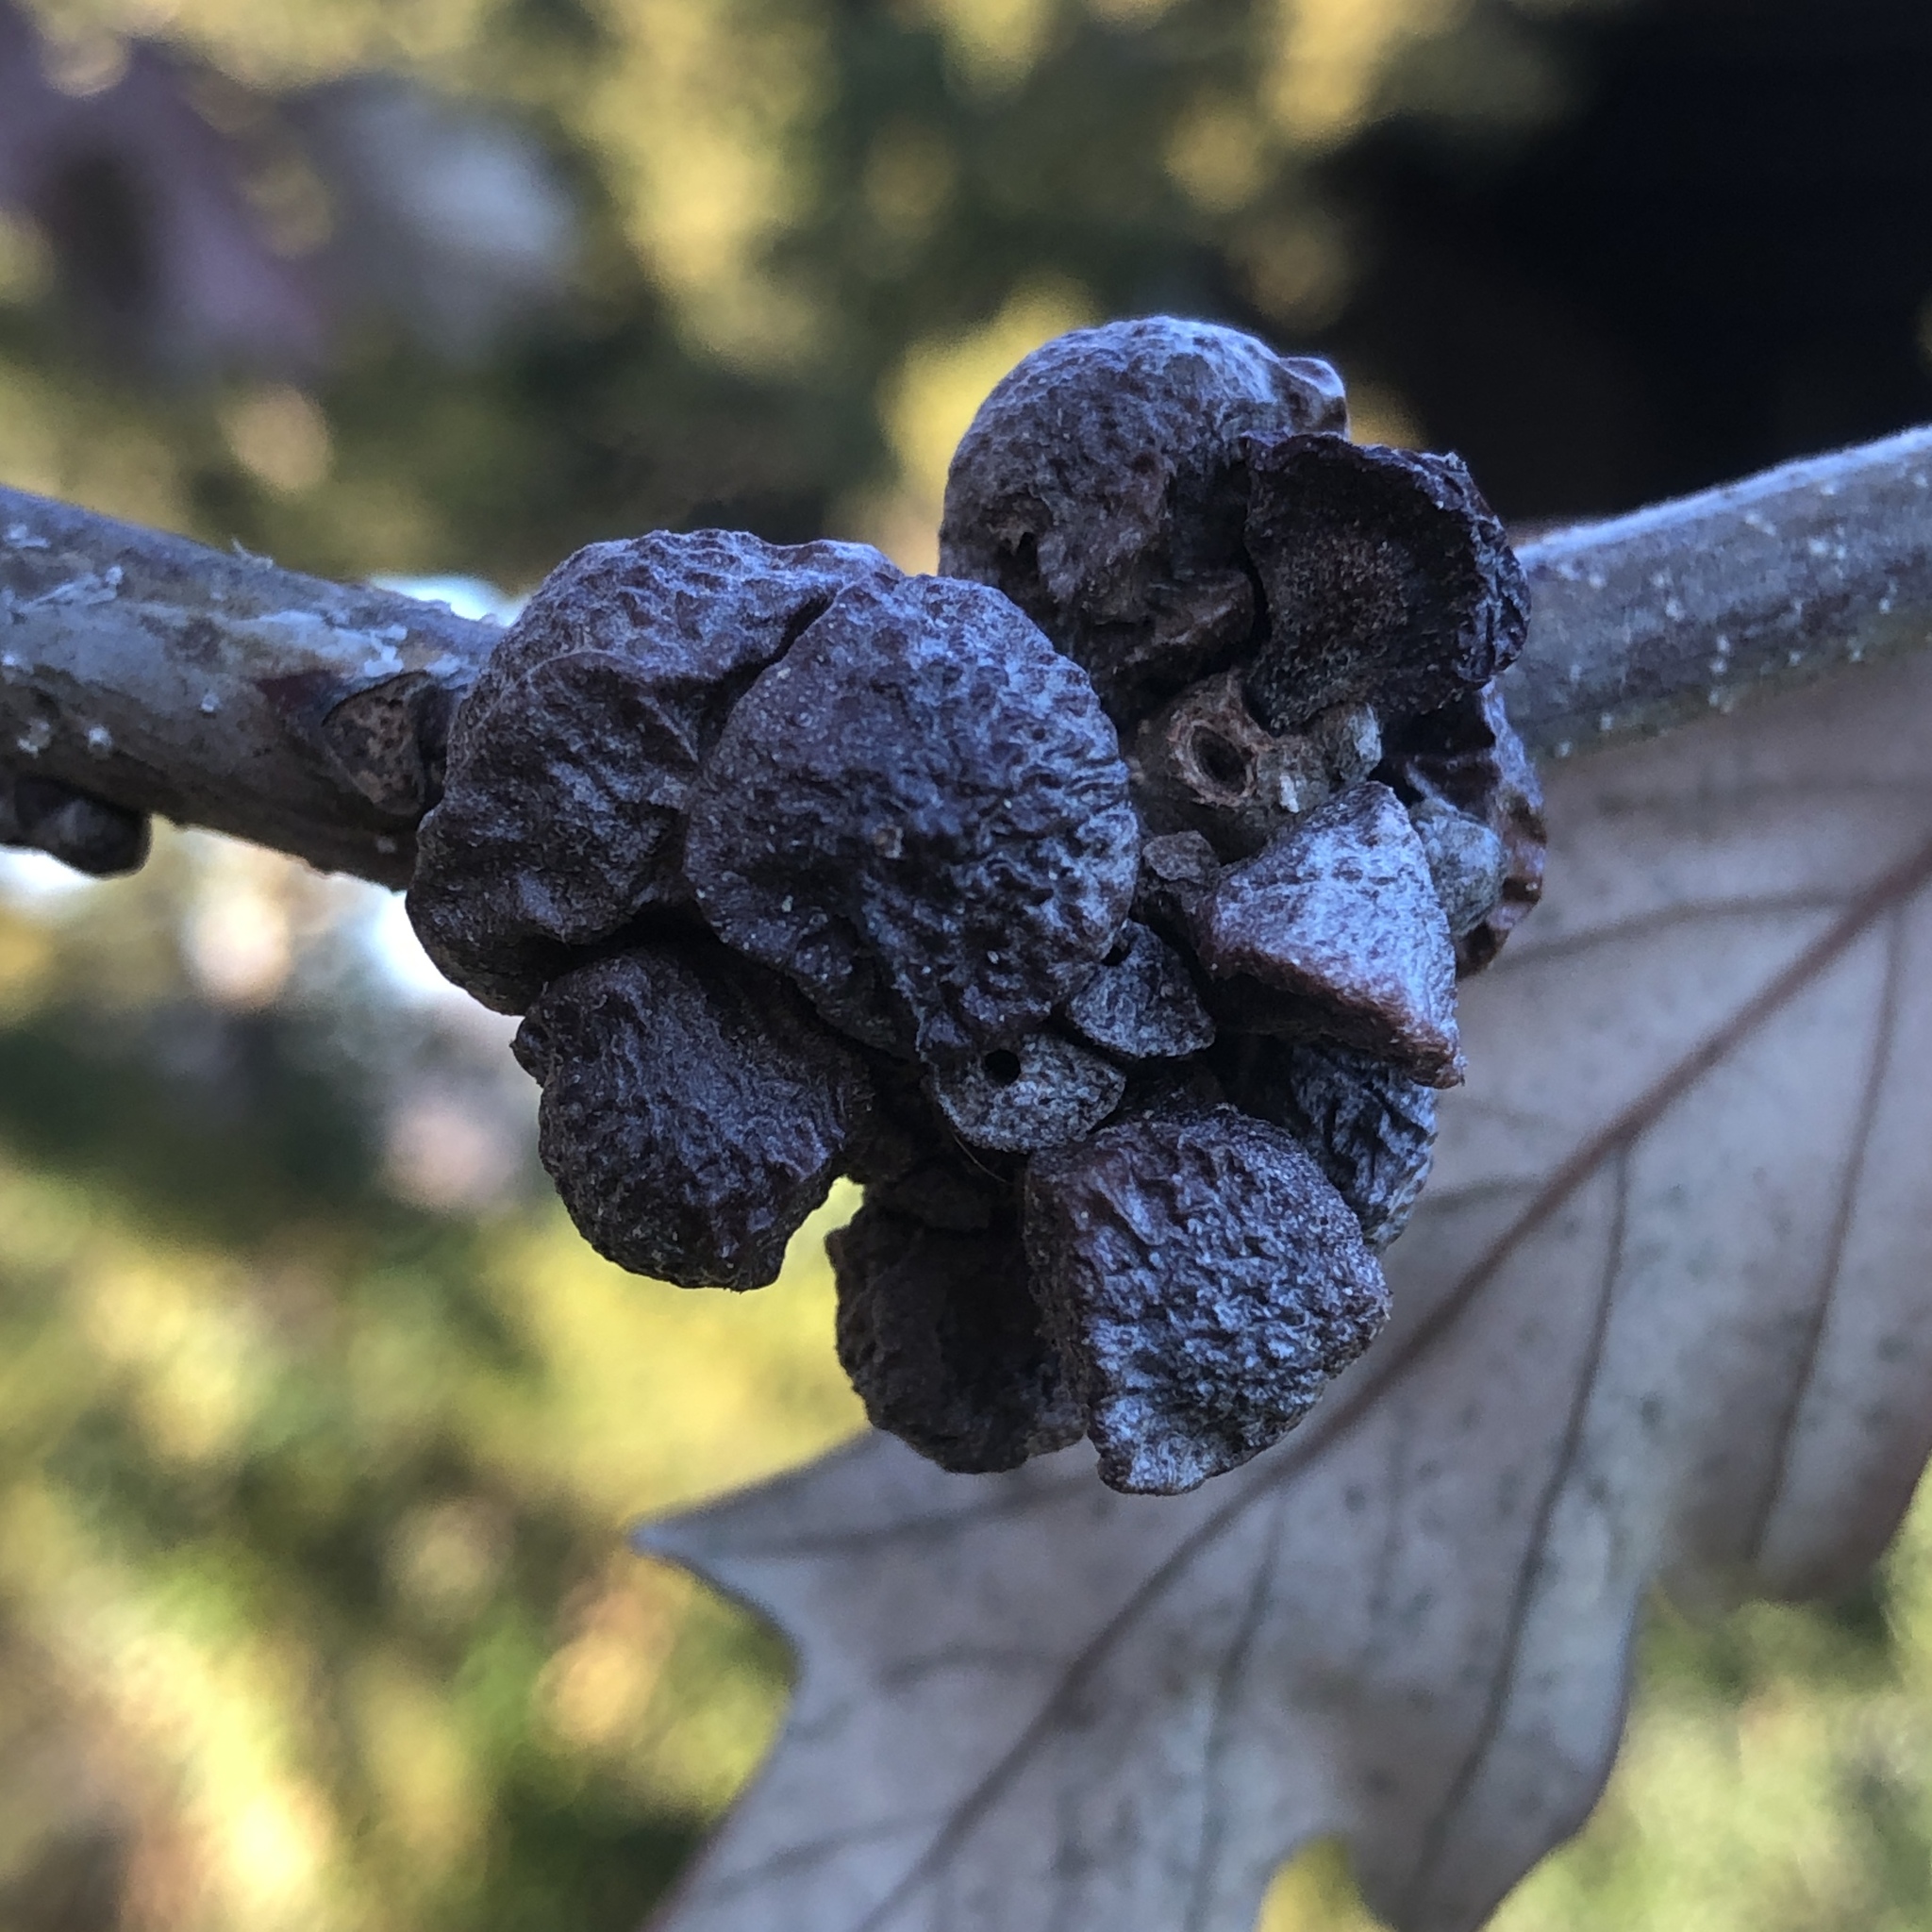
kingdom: Animalia
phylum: Arthropoda
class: Insecta
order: Hymenoptera
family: Cynipidae
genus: Andricus
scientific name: Andricus
